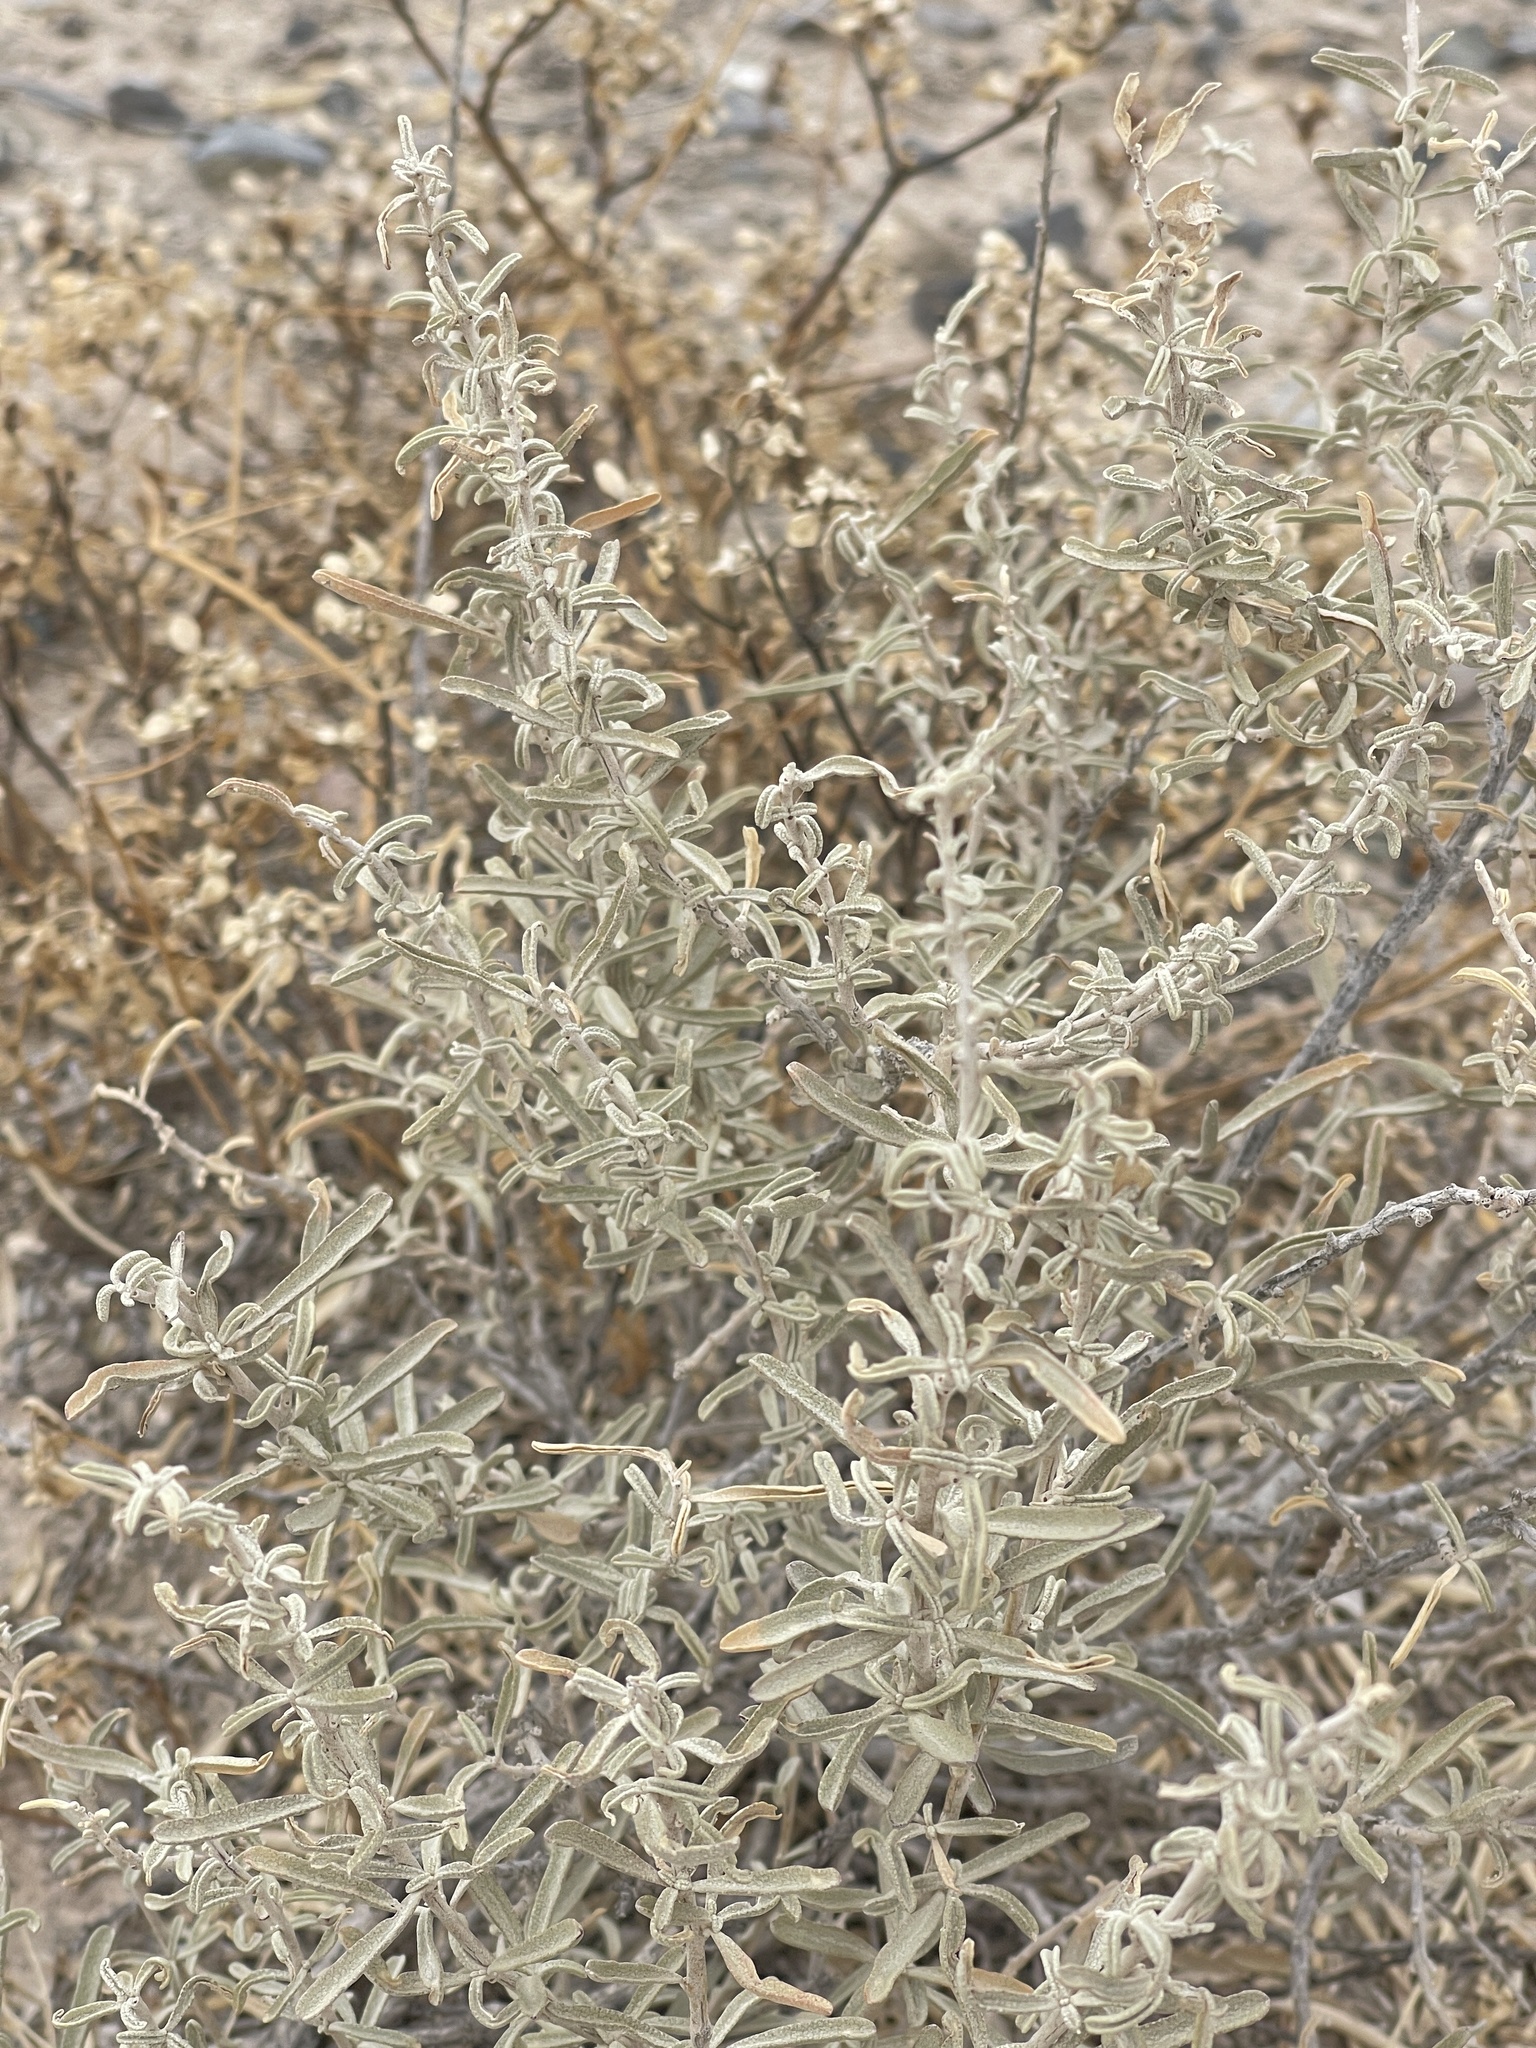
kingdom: Plantae
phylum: Tracheophyta
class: Magnoliopsida
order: Caryophyllales
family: Amaranthaceae
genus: Atriplex
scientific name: Atriplex canescens
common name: Four-wing saltbush
